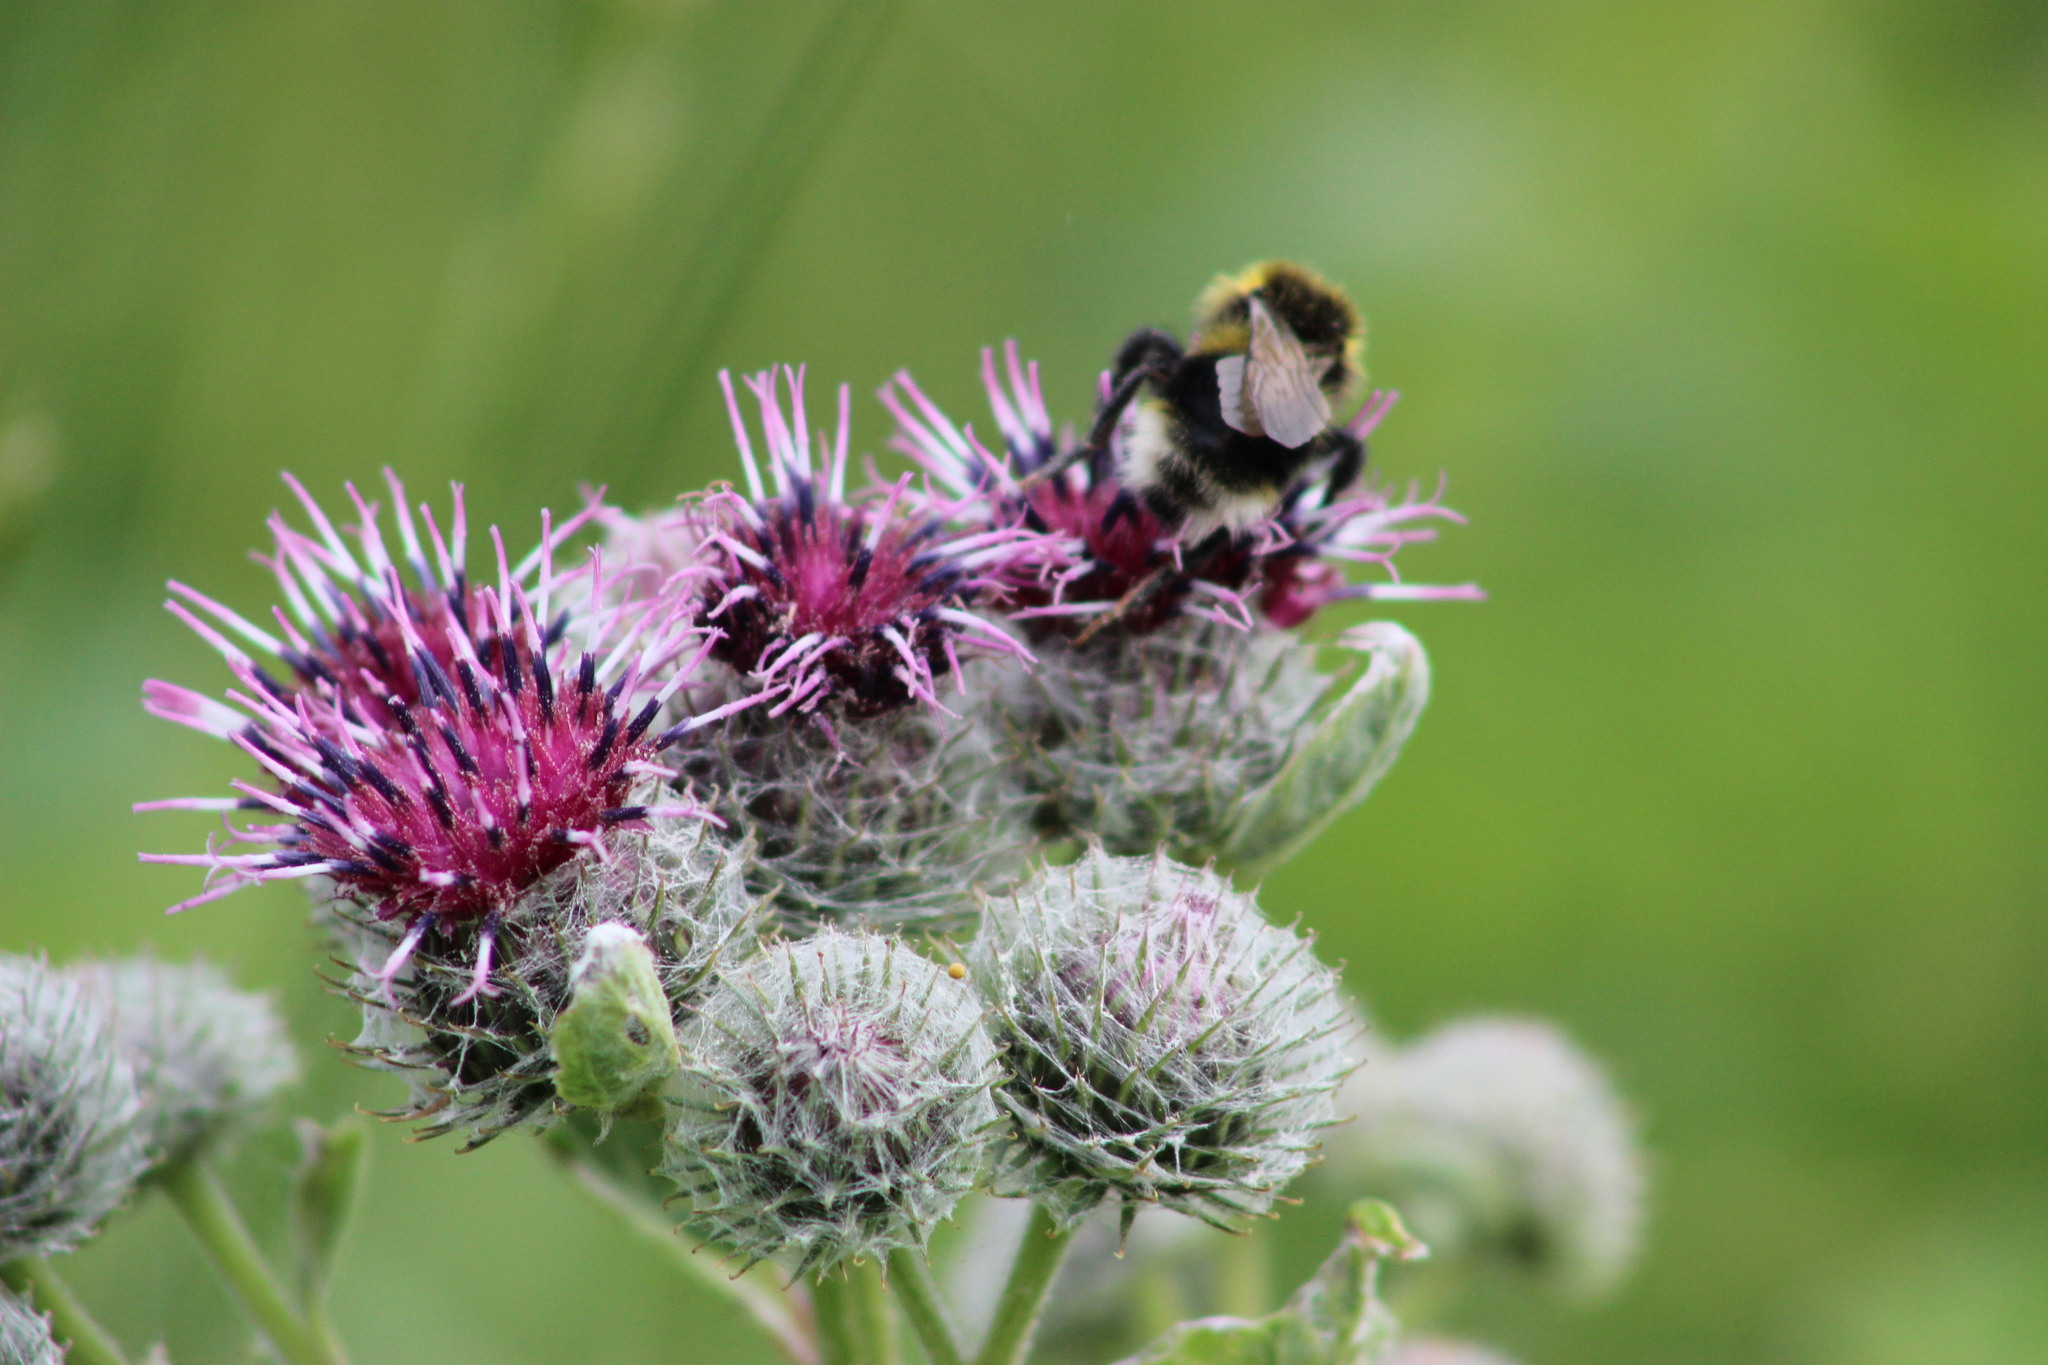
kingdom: Animalia
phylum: Arthropoda
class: Insecta
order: Hymenoptera
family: Apidae
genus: Bombus
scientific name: Bombus bohemicus
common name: Gypsy cuckoo bee
